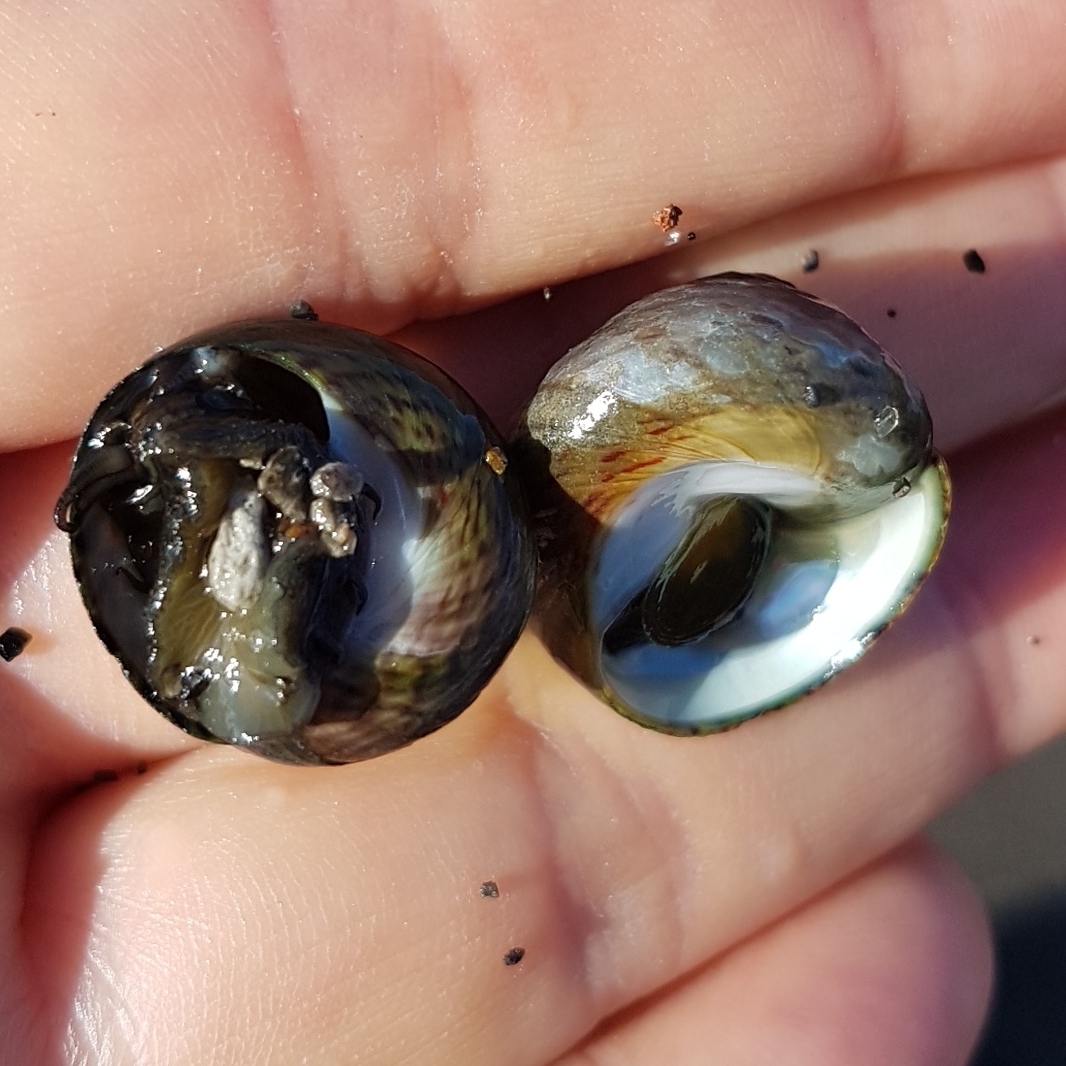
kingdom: Animalia
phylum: Mollusca
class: Gastropoda
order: Trochida
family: Trochidae
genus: Phorcus
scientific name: Phorcus sauciatus
